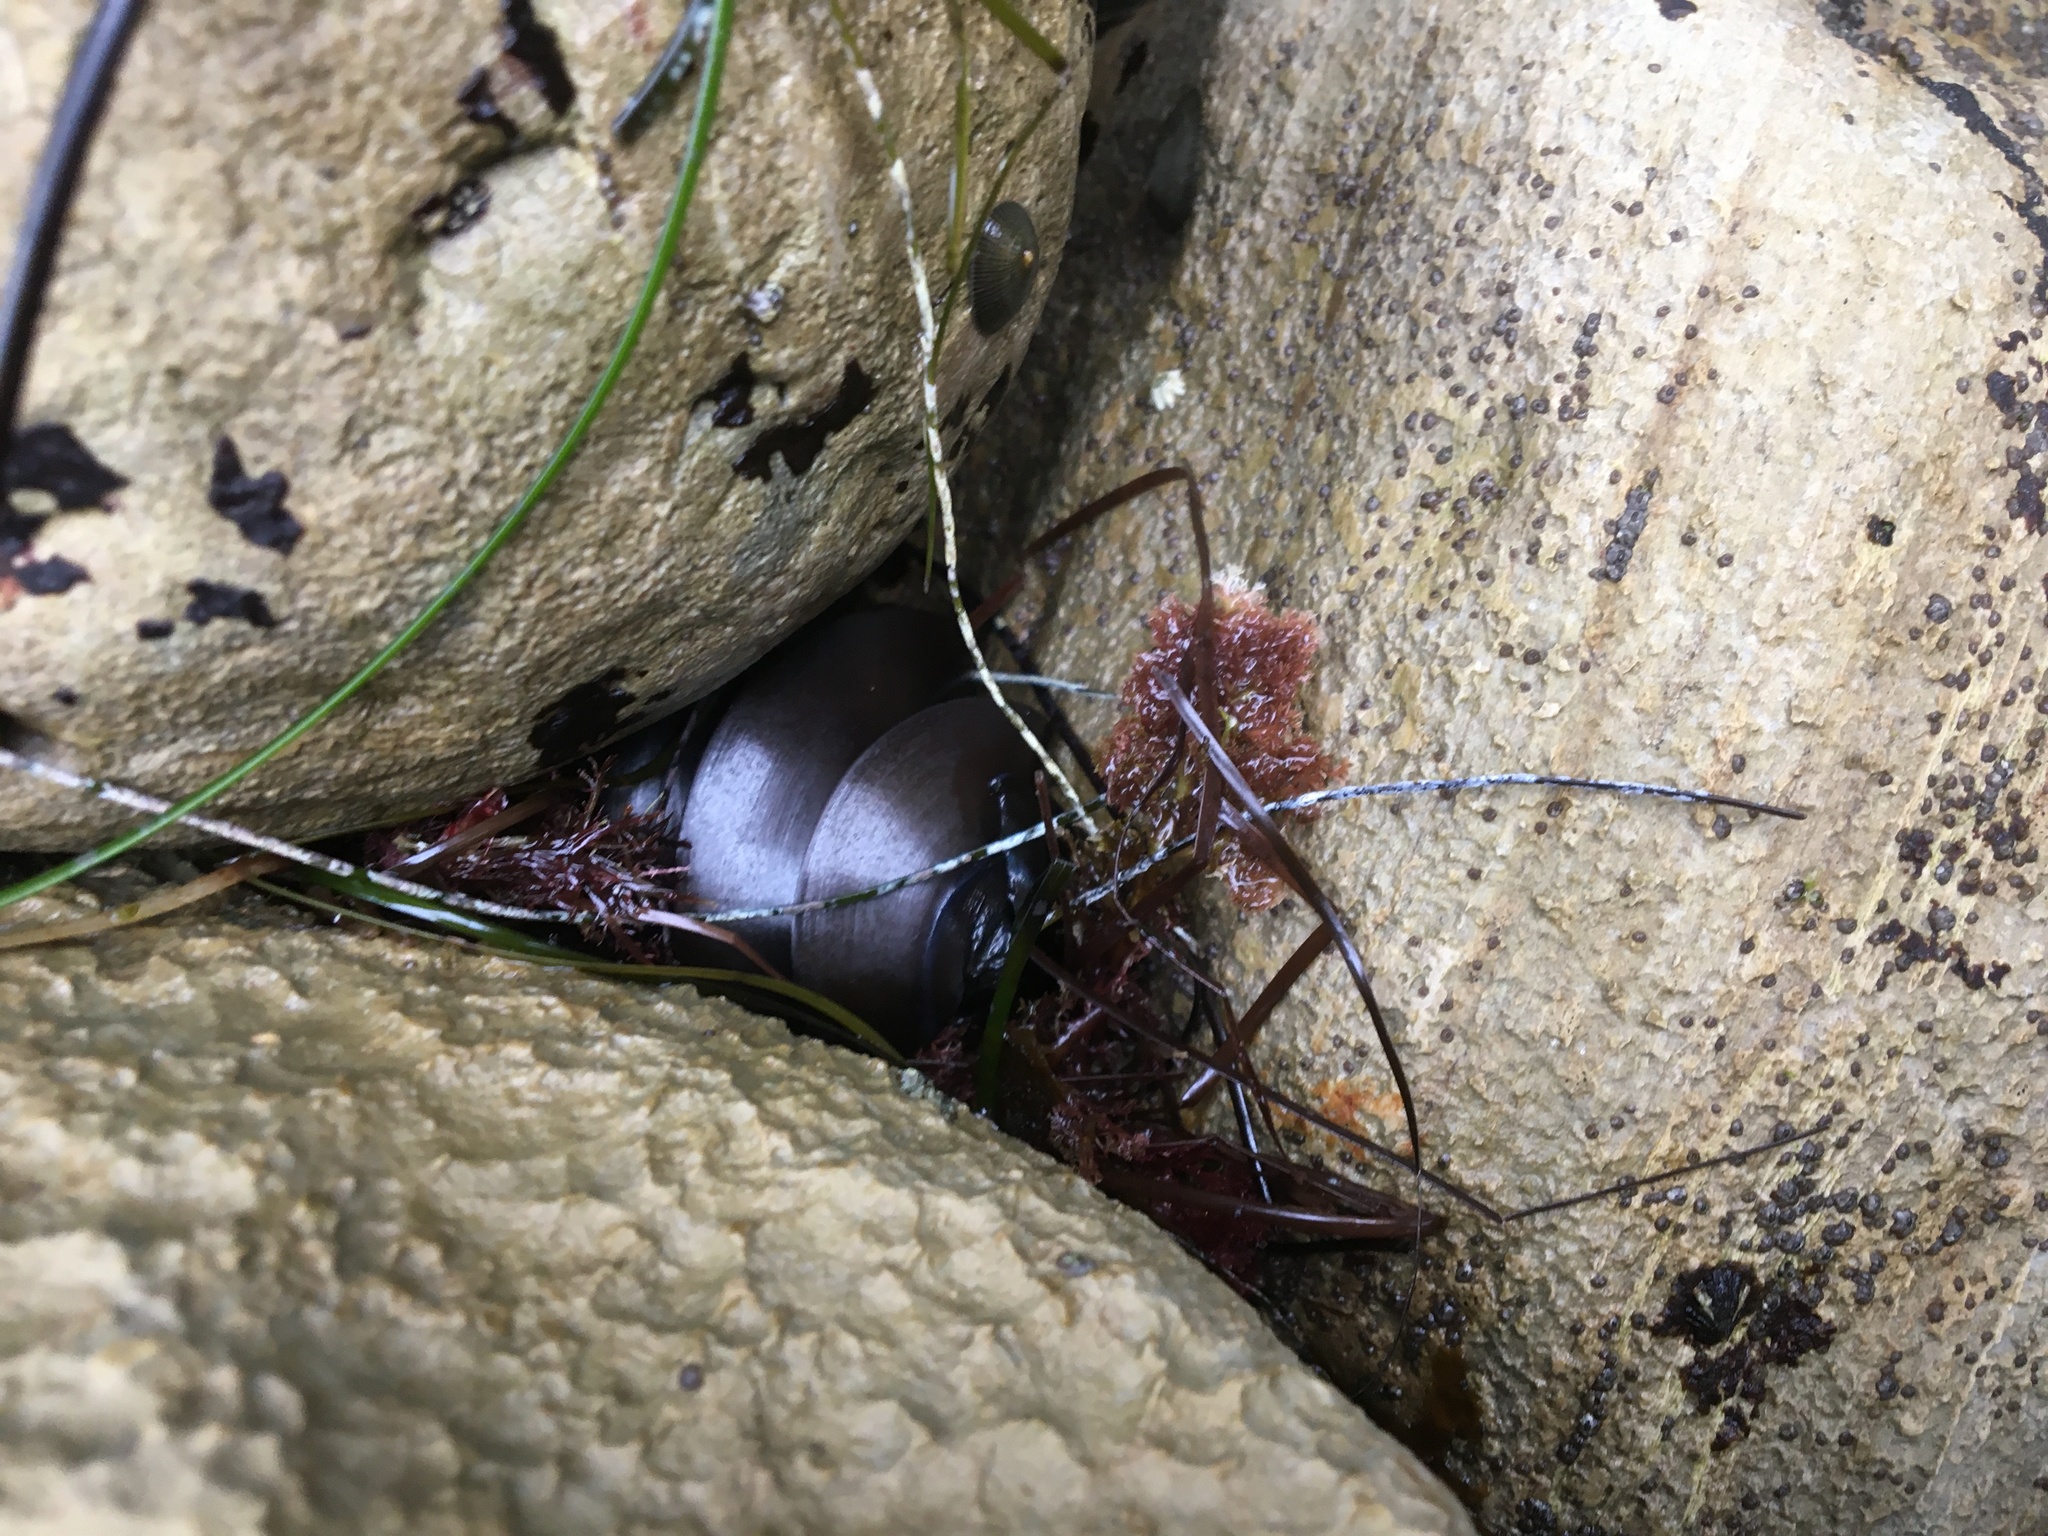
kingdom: Animalia
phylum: Chordata
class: Elasmobranchii
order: Heterodontiformes
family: Heterodontidae
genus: Heterodontus
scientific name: Heterodontus francisci
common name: Horn shark
